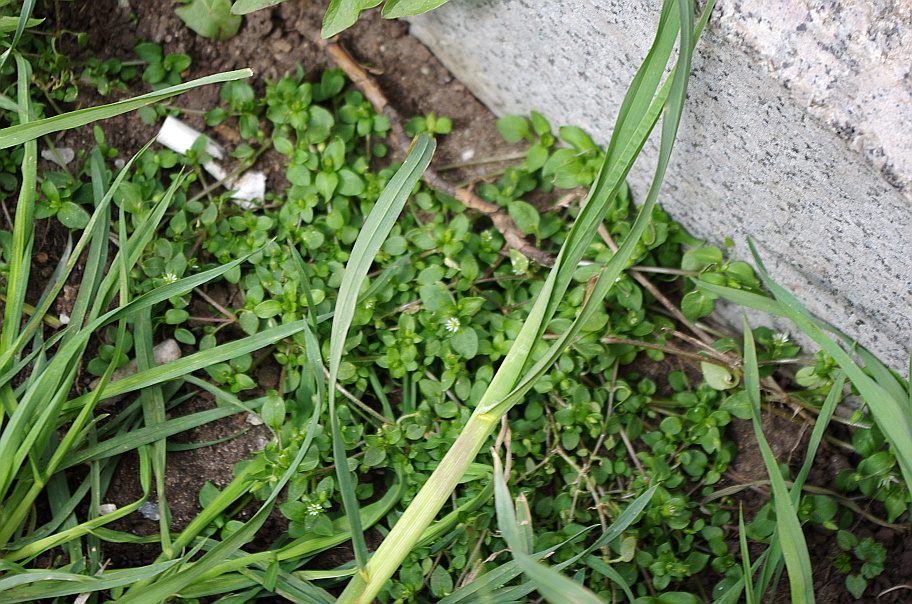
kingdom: Plantae
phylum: Tracheophyta
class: Magnoliopsida
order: Caryophyllales
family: Caryophyllaceae
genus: Stellaria
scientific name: Stellaria media
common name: Common chickweed
